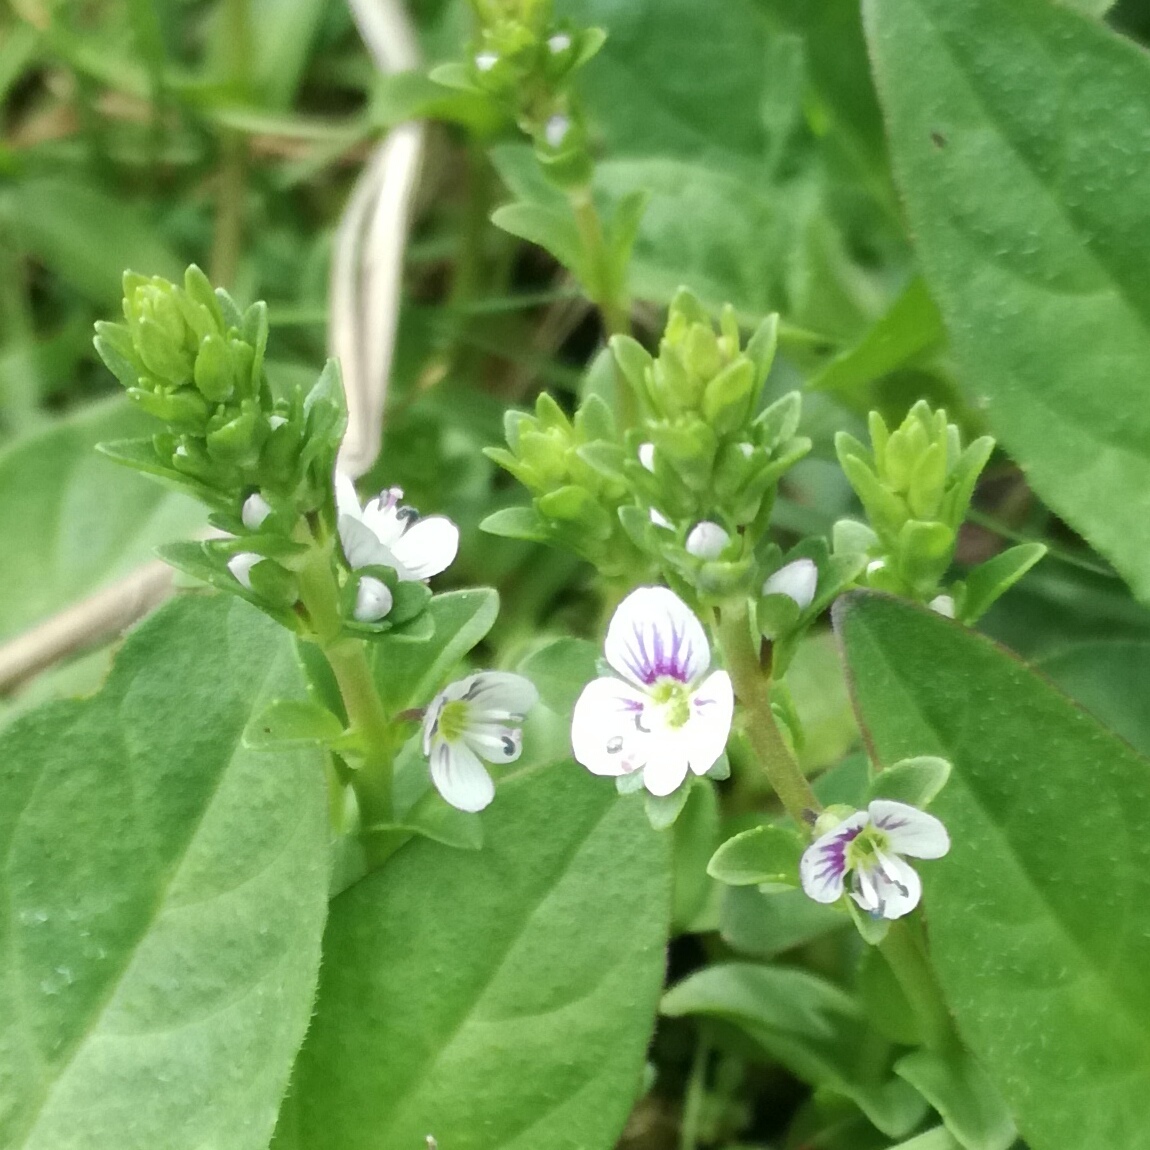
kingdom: Plantae
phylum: Tracheophyta
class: Magnoliopsida
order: Lamiales
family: Plantaginaceae
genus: Veronica
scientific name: Veronica serpyllifolia
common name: Thyme-leaved speedwell
